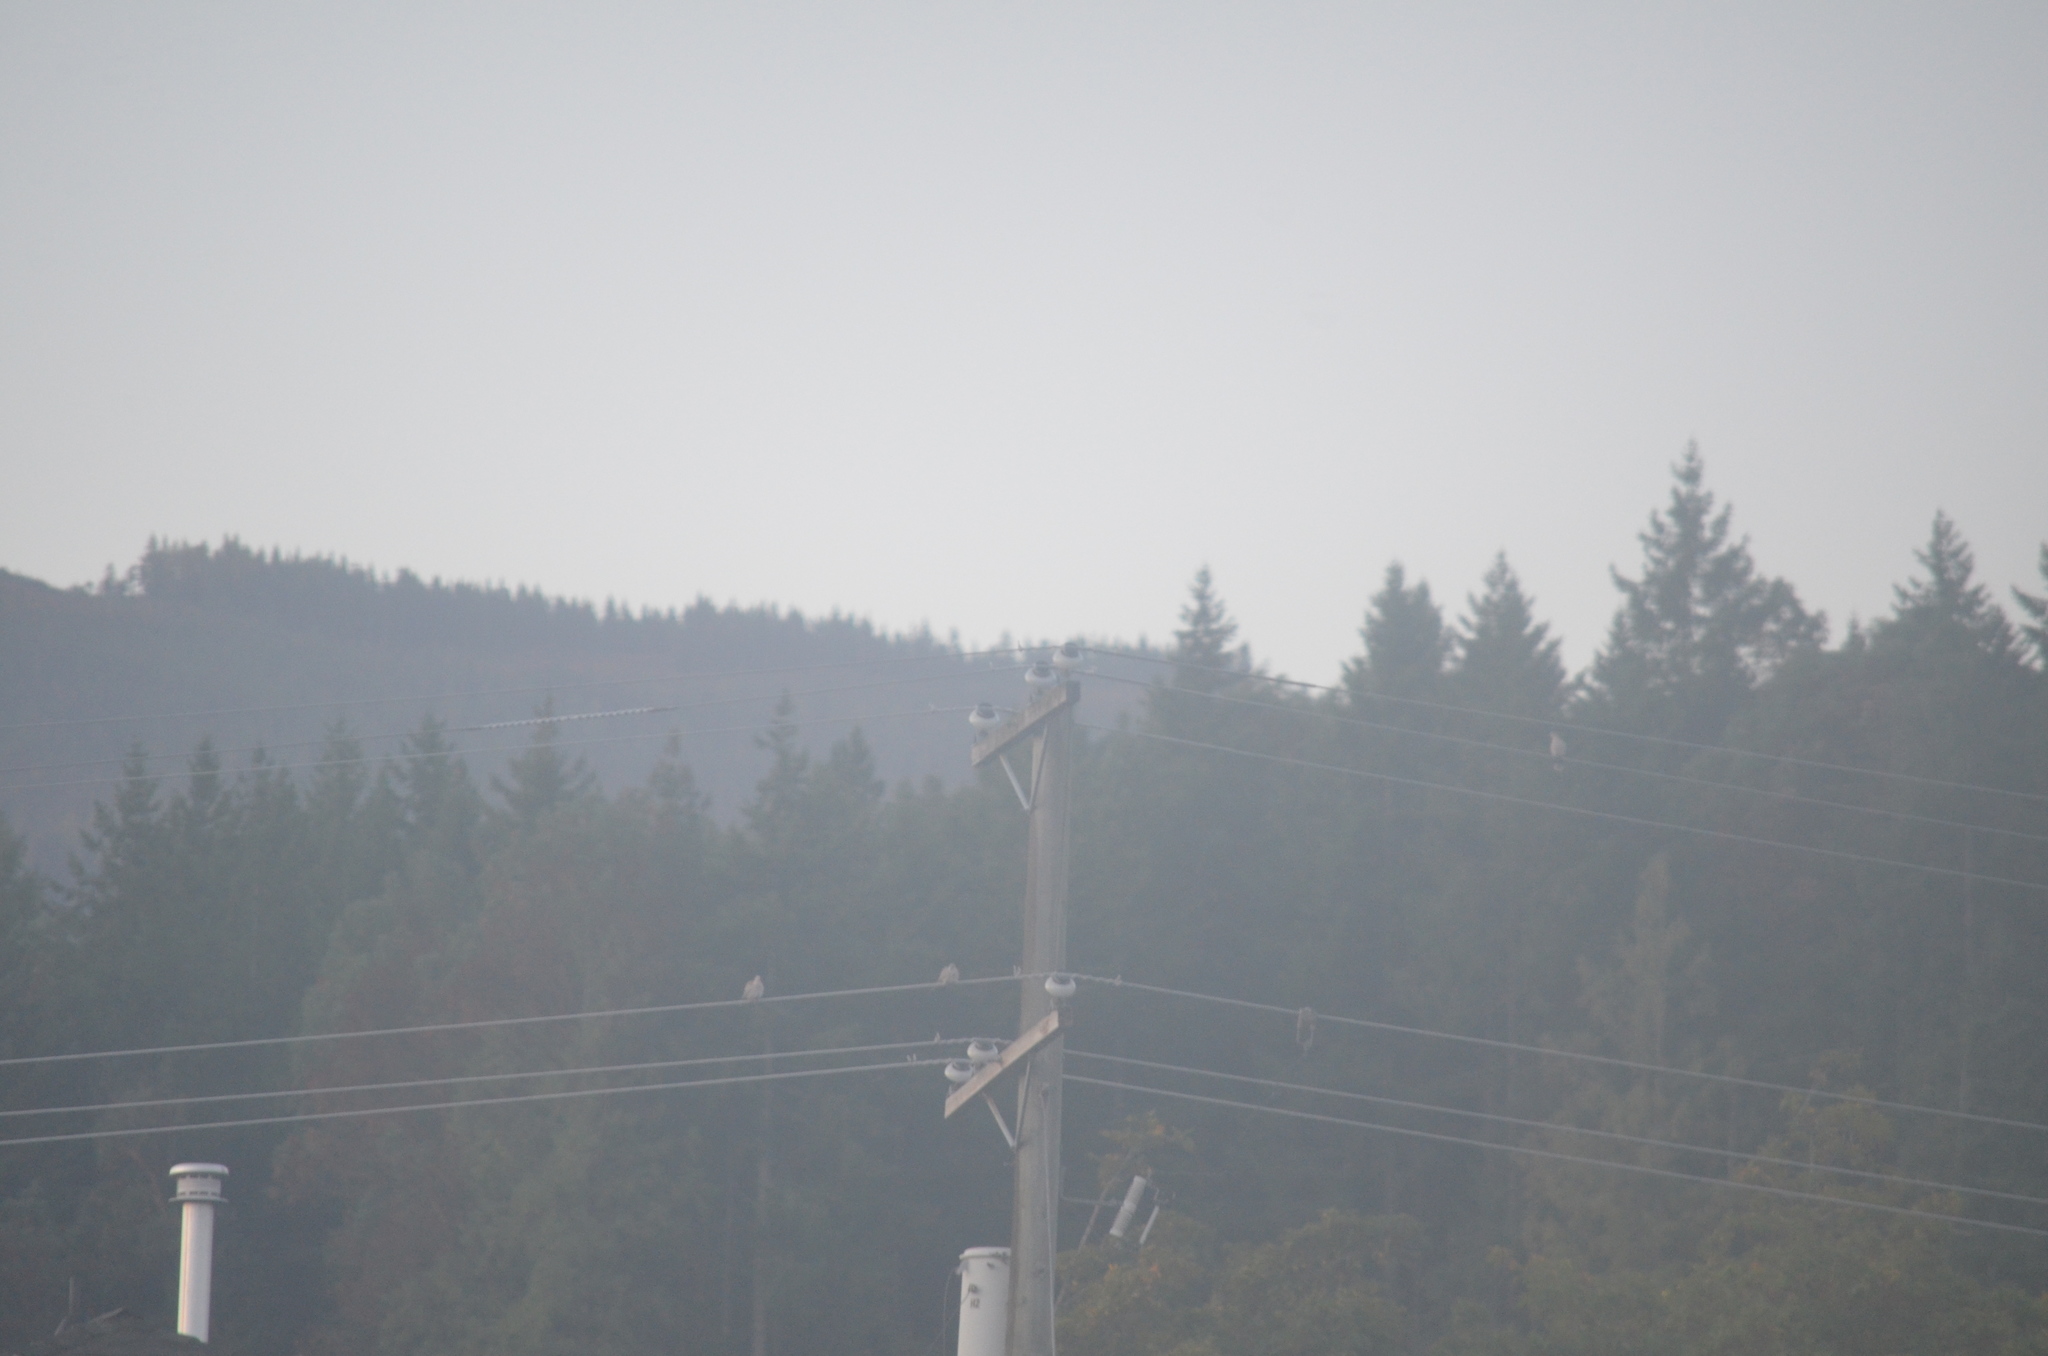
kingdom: Animalia
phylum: Chordata
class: Aves
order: Columbiformes
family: Columbidae
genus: Streptopelia
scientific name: Streptopelia decaocto
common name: Eurasian collared dove
